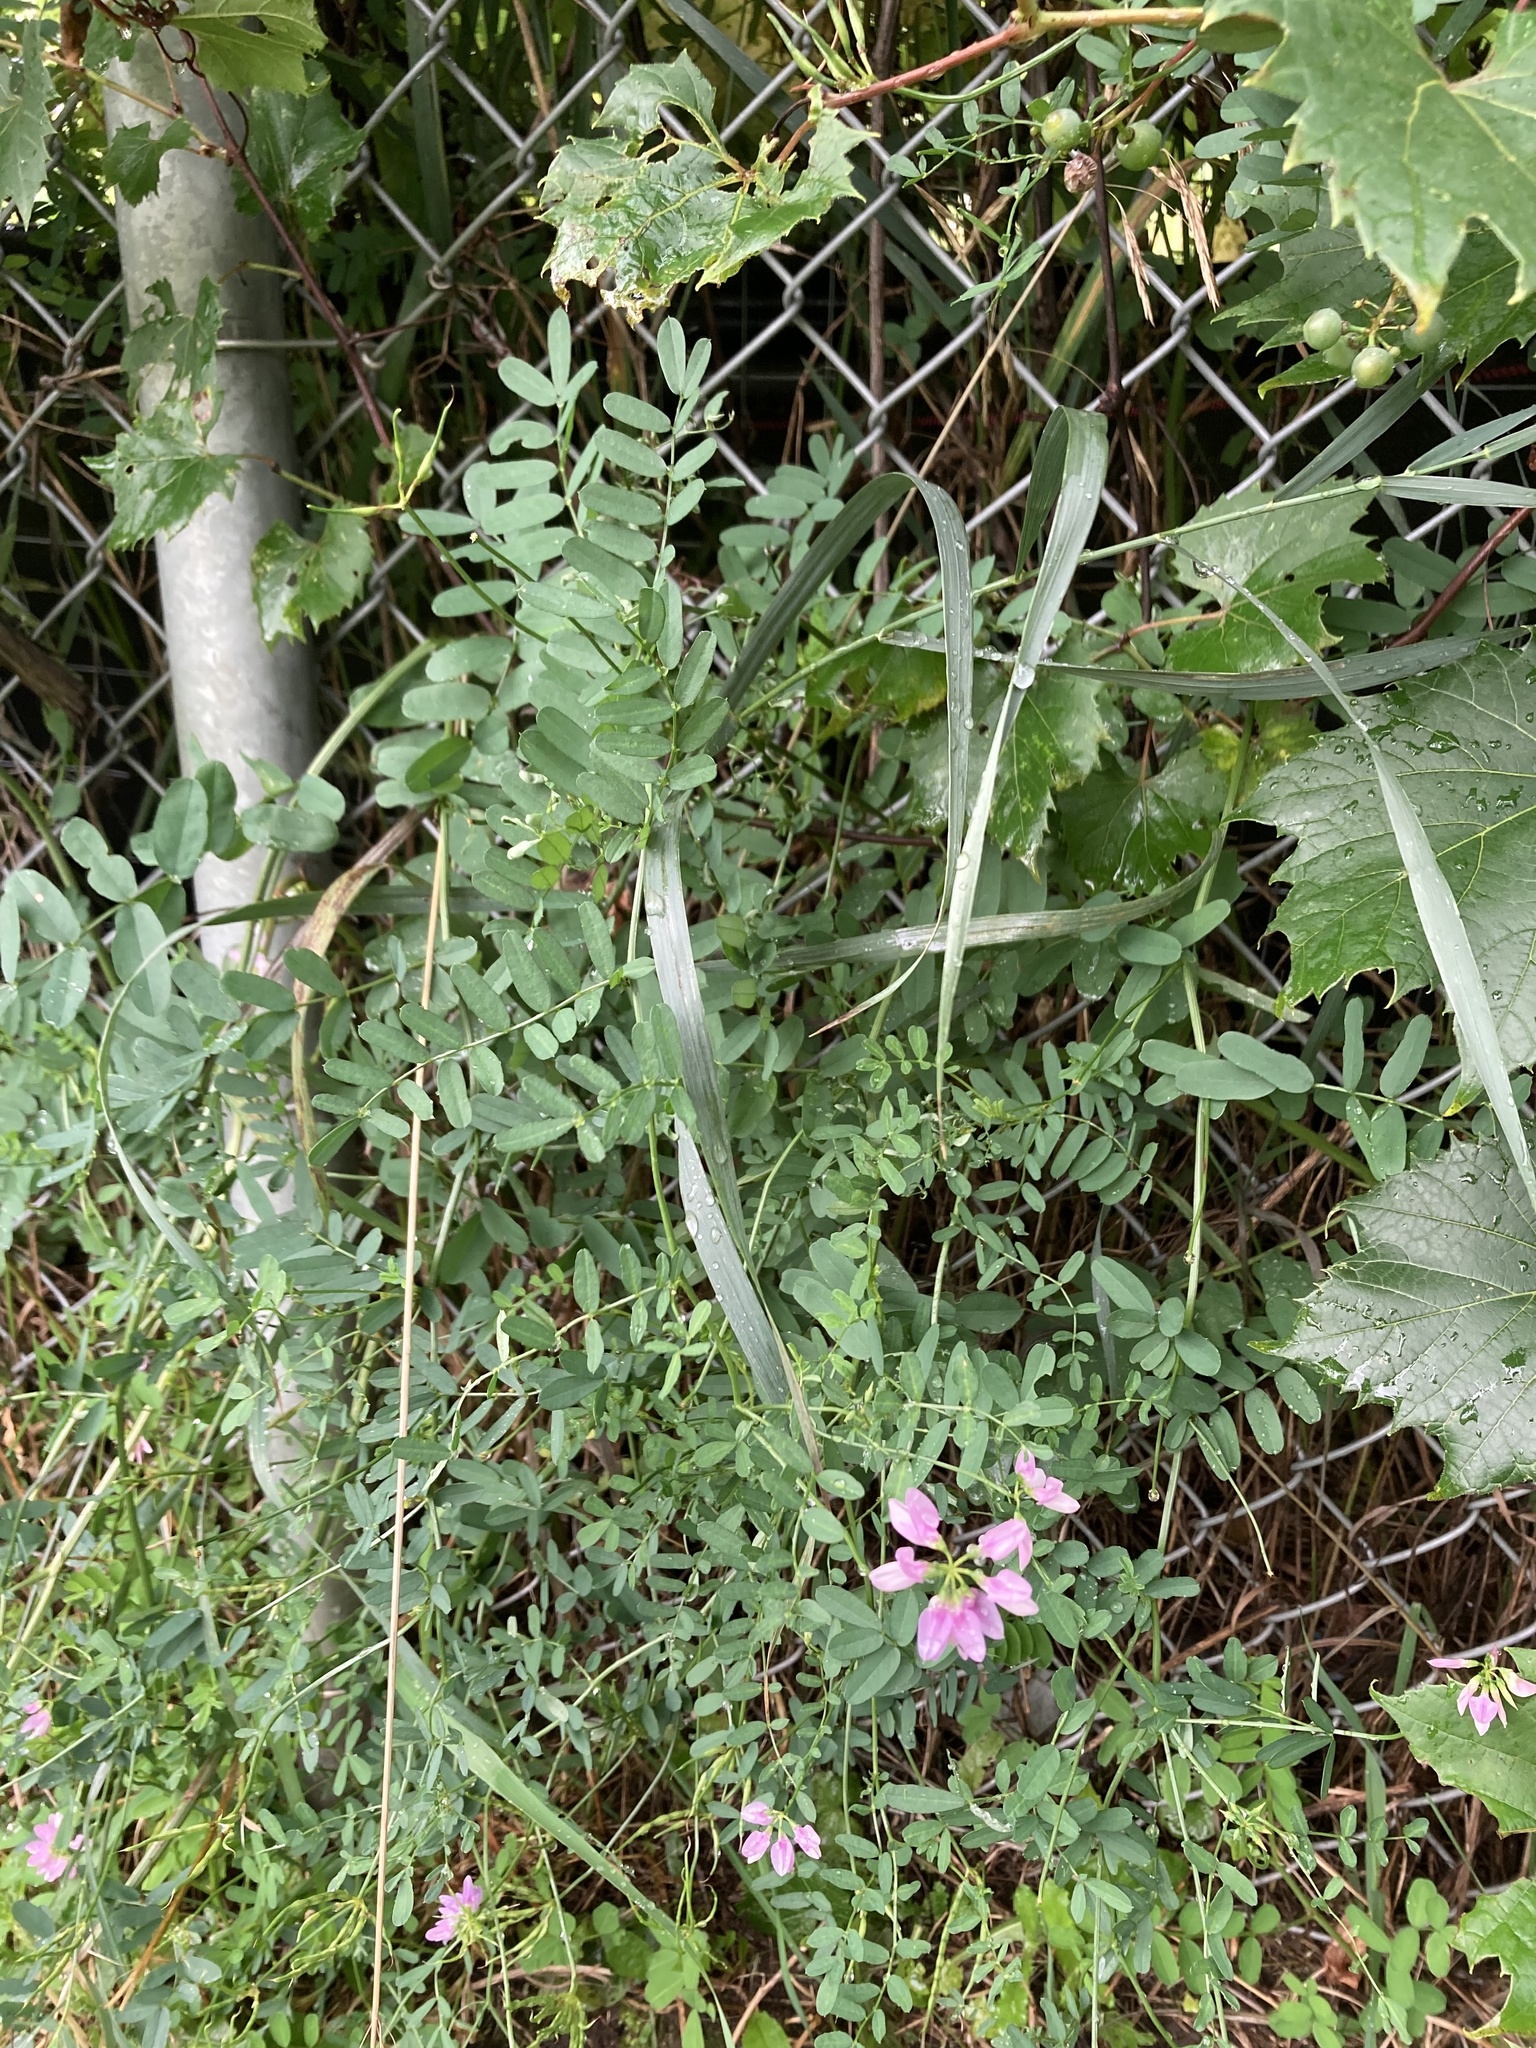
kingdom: Plantae
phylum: Tracheophyta
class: Magnoliopsida
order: Fabales
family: Fabaceae
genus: Coronilla
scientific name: Coronilla varia
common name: Crownvetch
